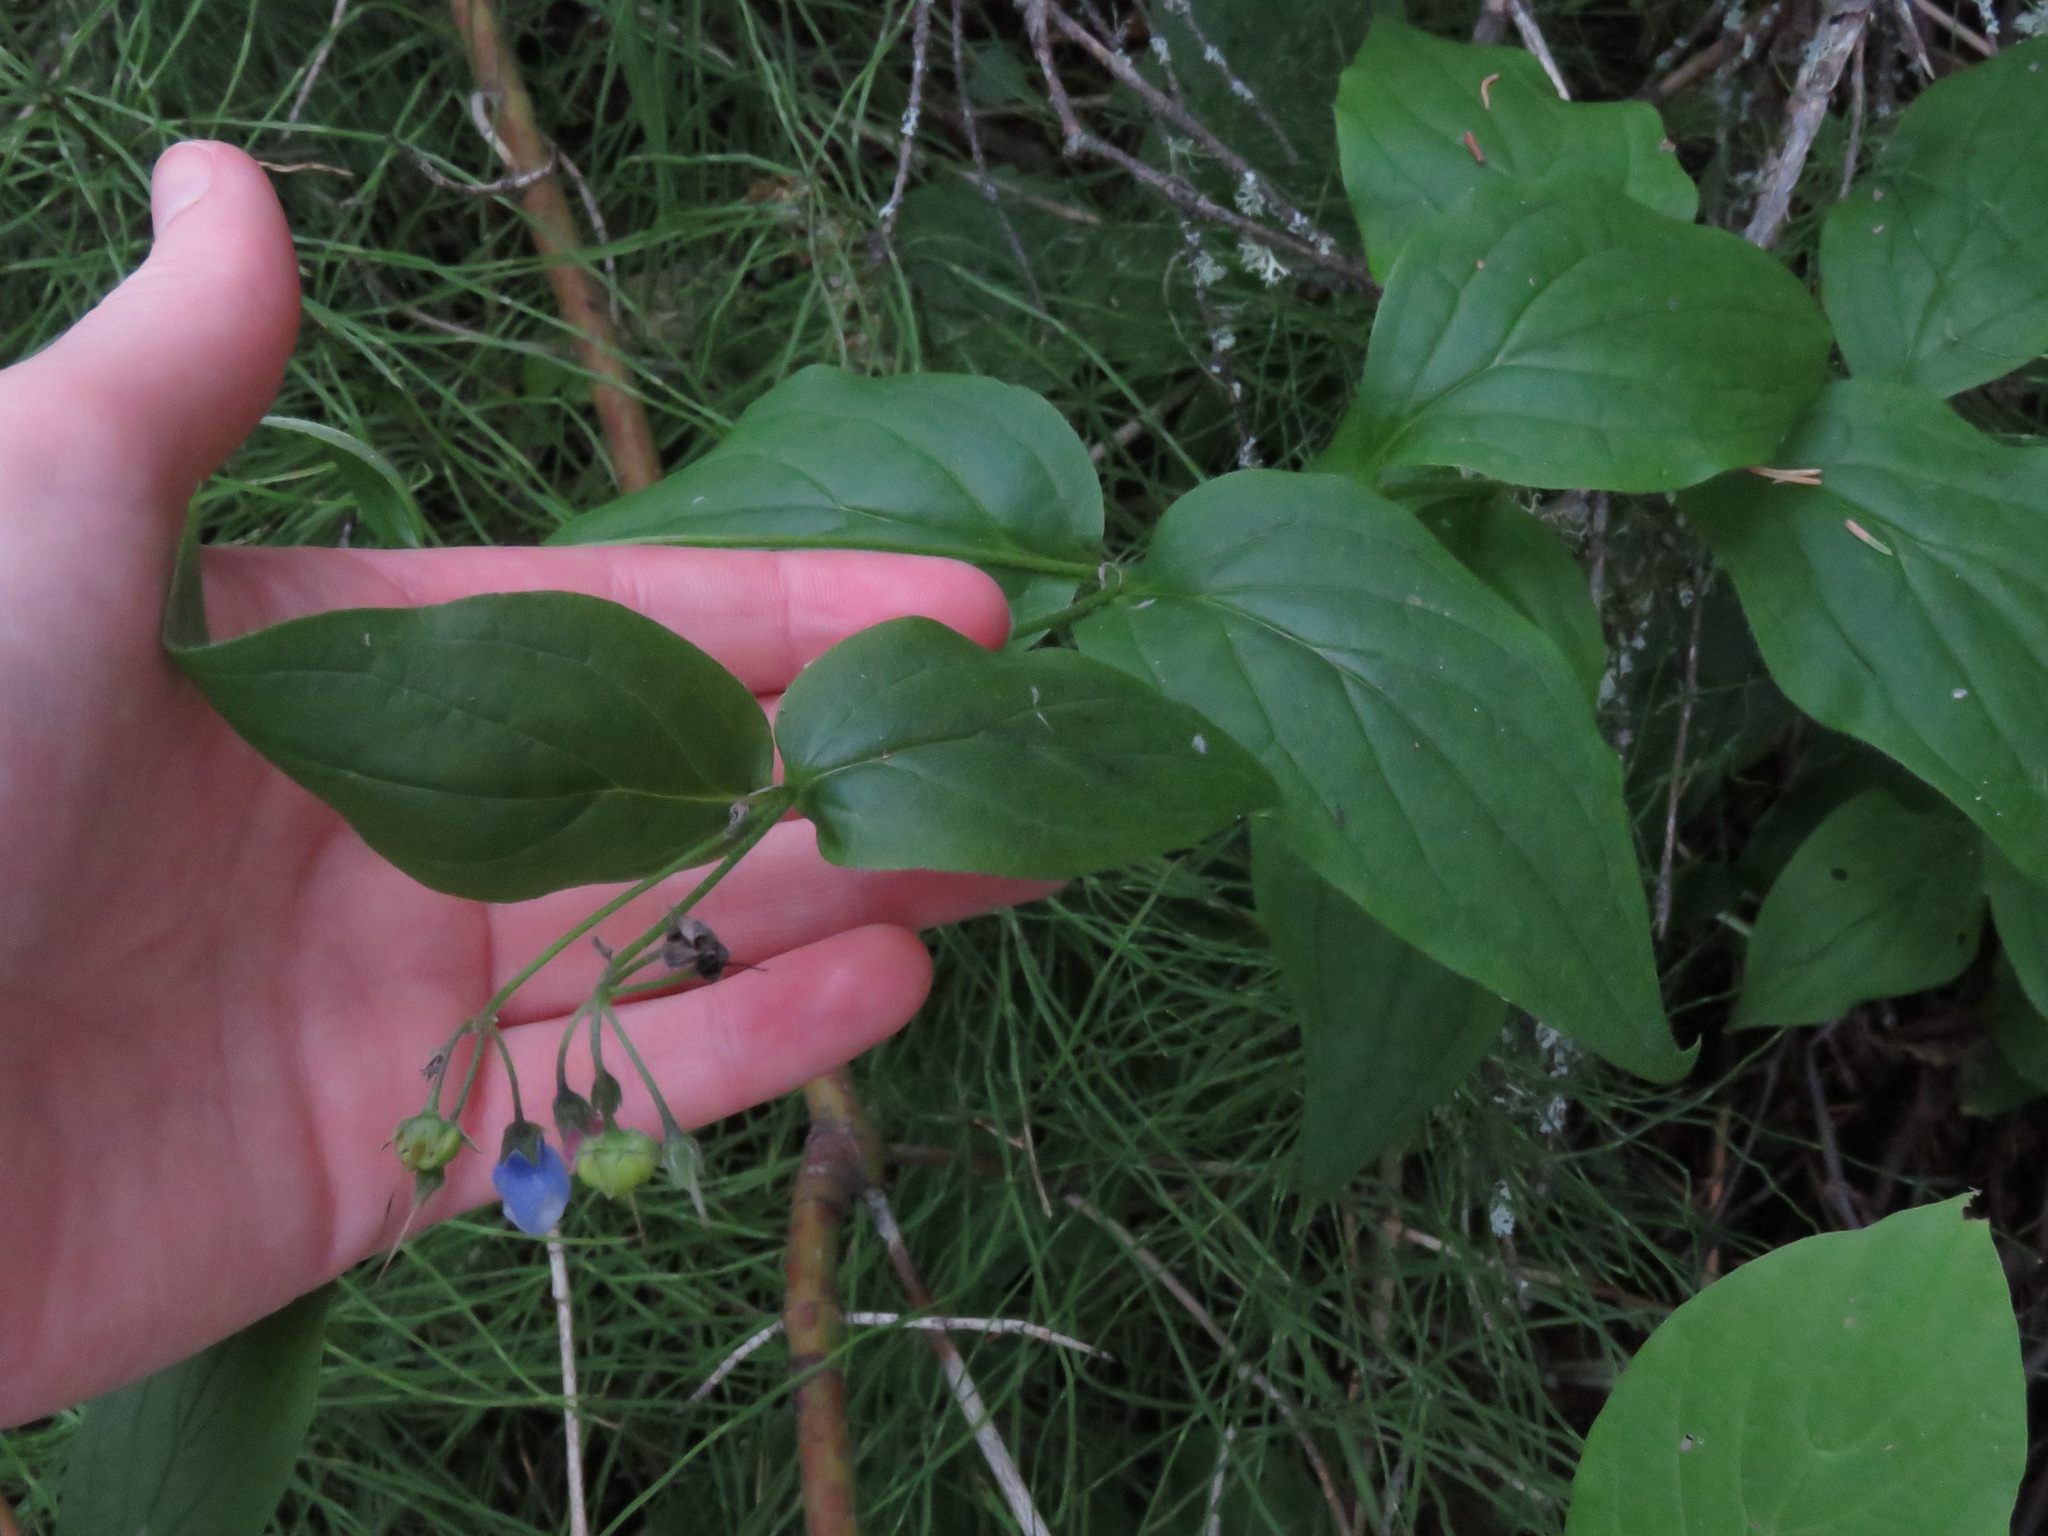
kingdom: Plantae
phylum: Tracheophyta
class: Magnoliopsida
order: Boraginales
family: Boraginaceae
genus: Mertensia
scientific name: Mertensia paniculata
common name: Panicled bluebells
